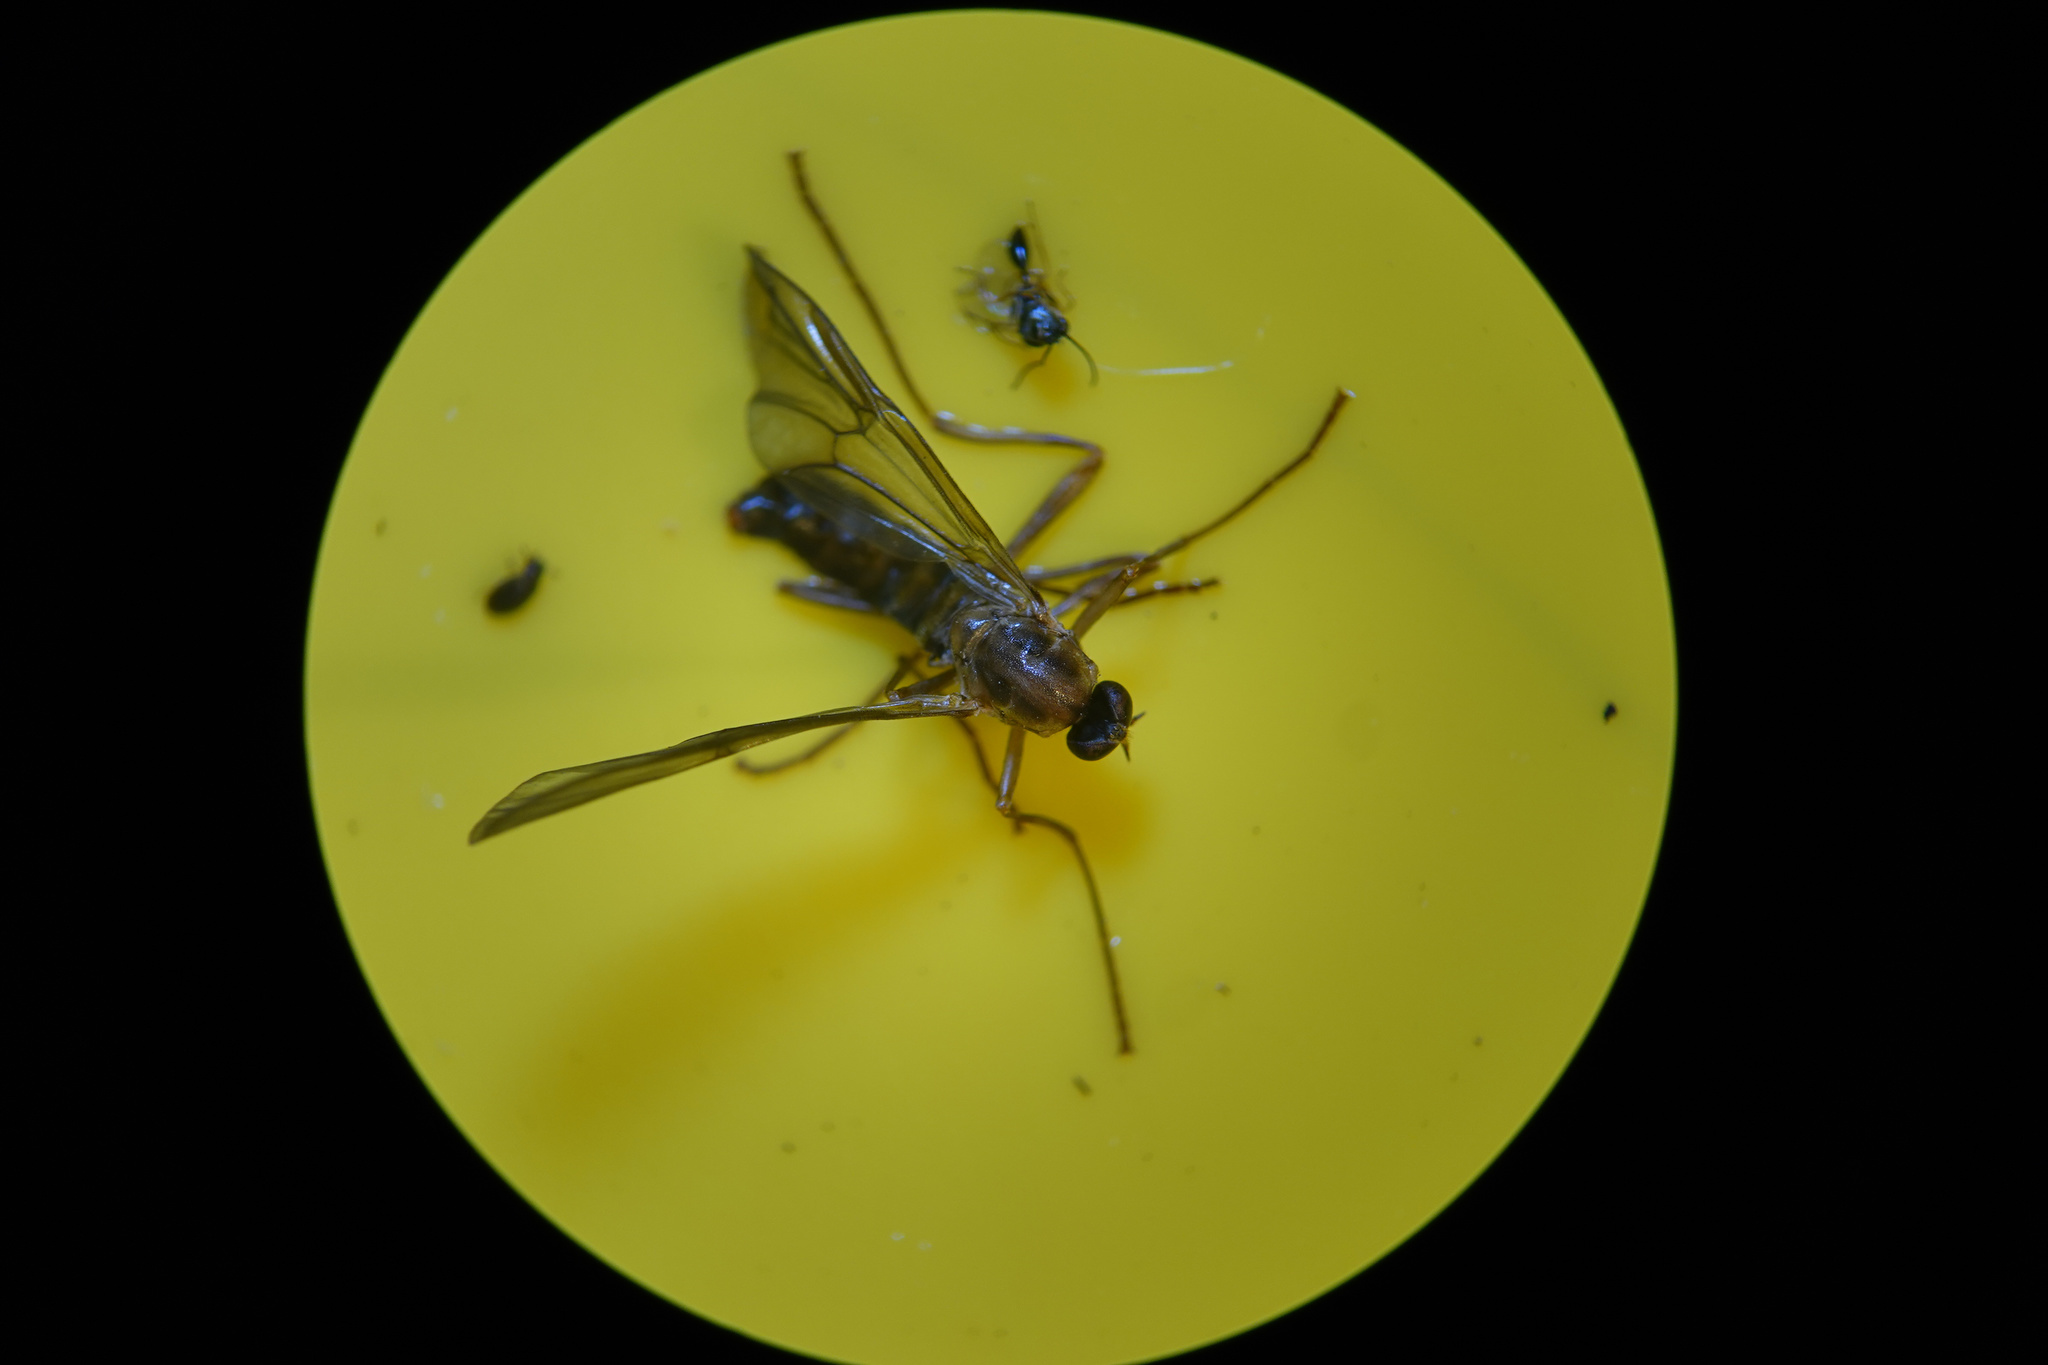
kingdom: Animalia
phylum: Arthropoda
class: Insecta
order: Diptera
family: Stratiomyidae
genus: Boreoides
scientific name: Boreoides tasmaniensis
